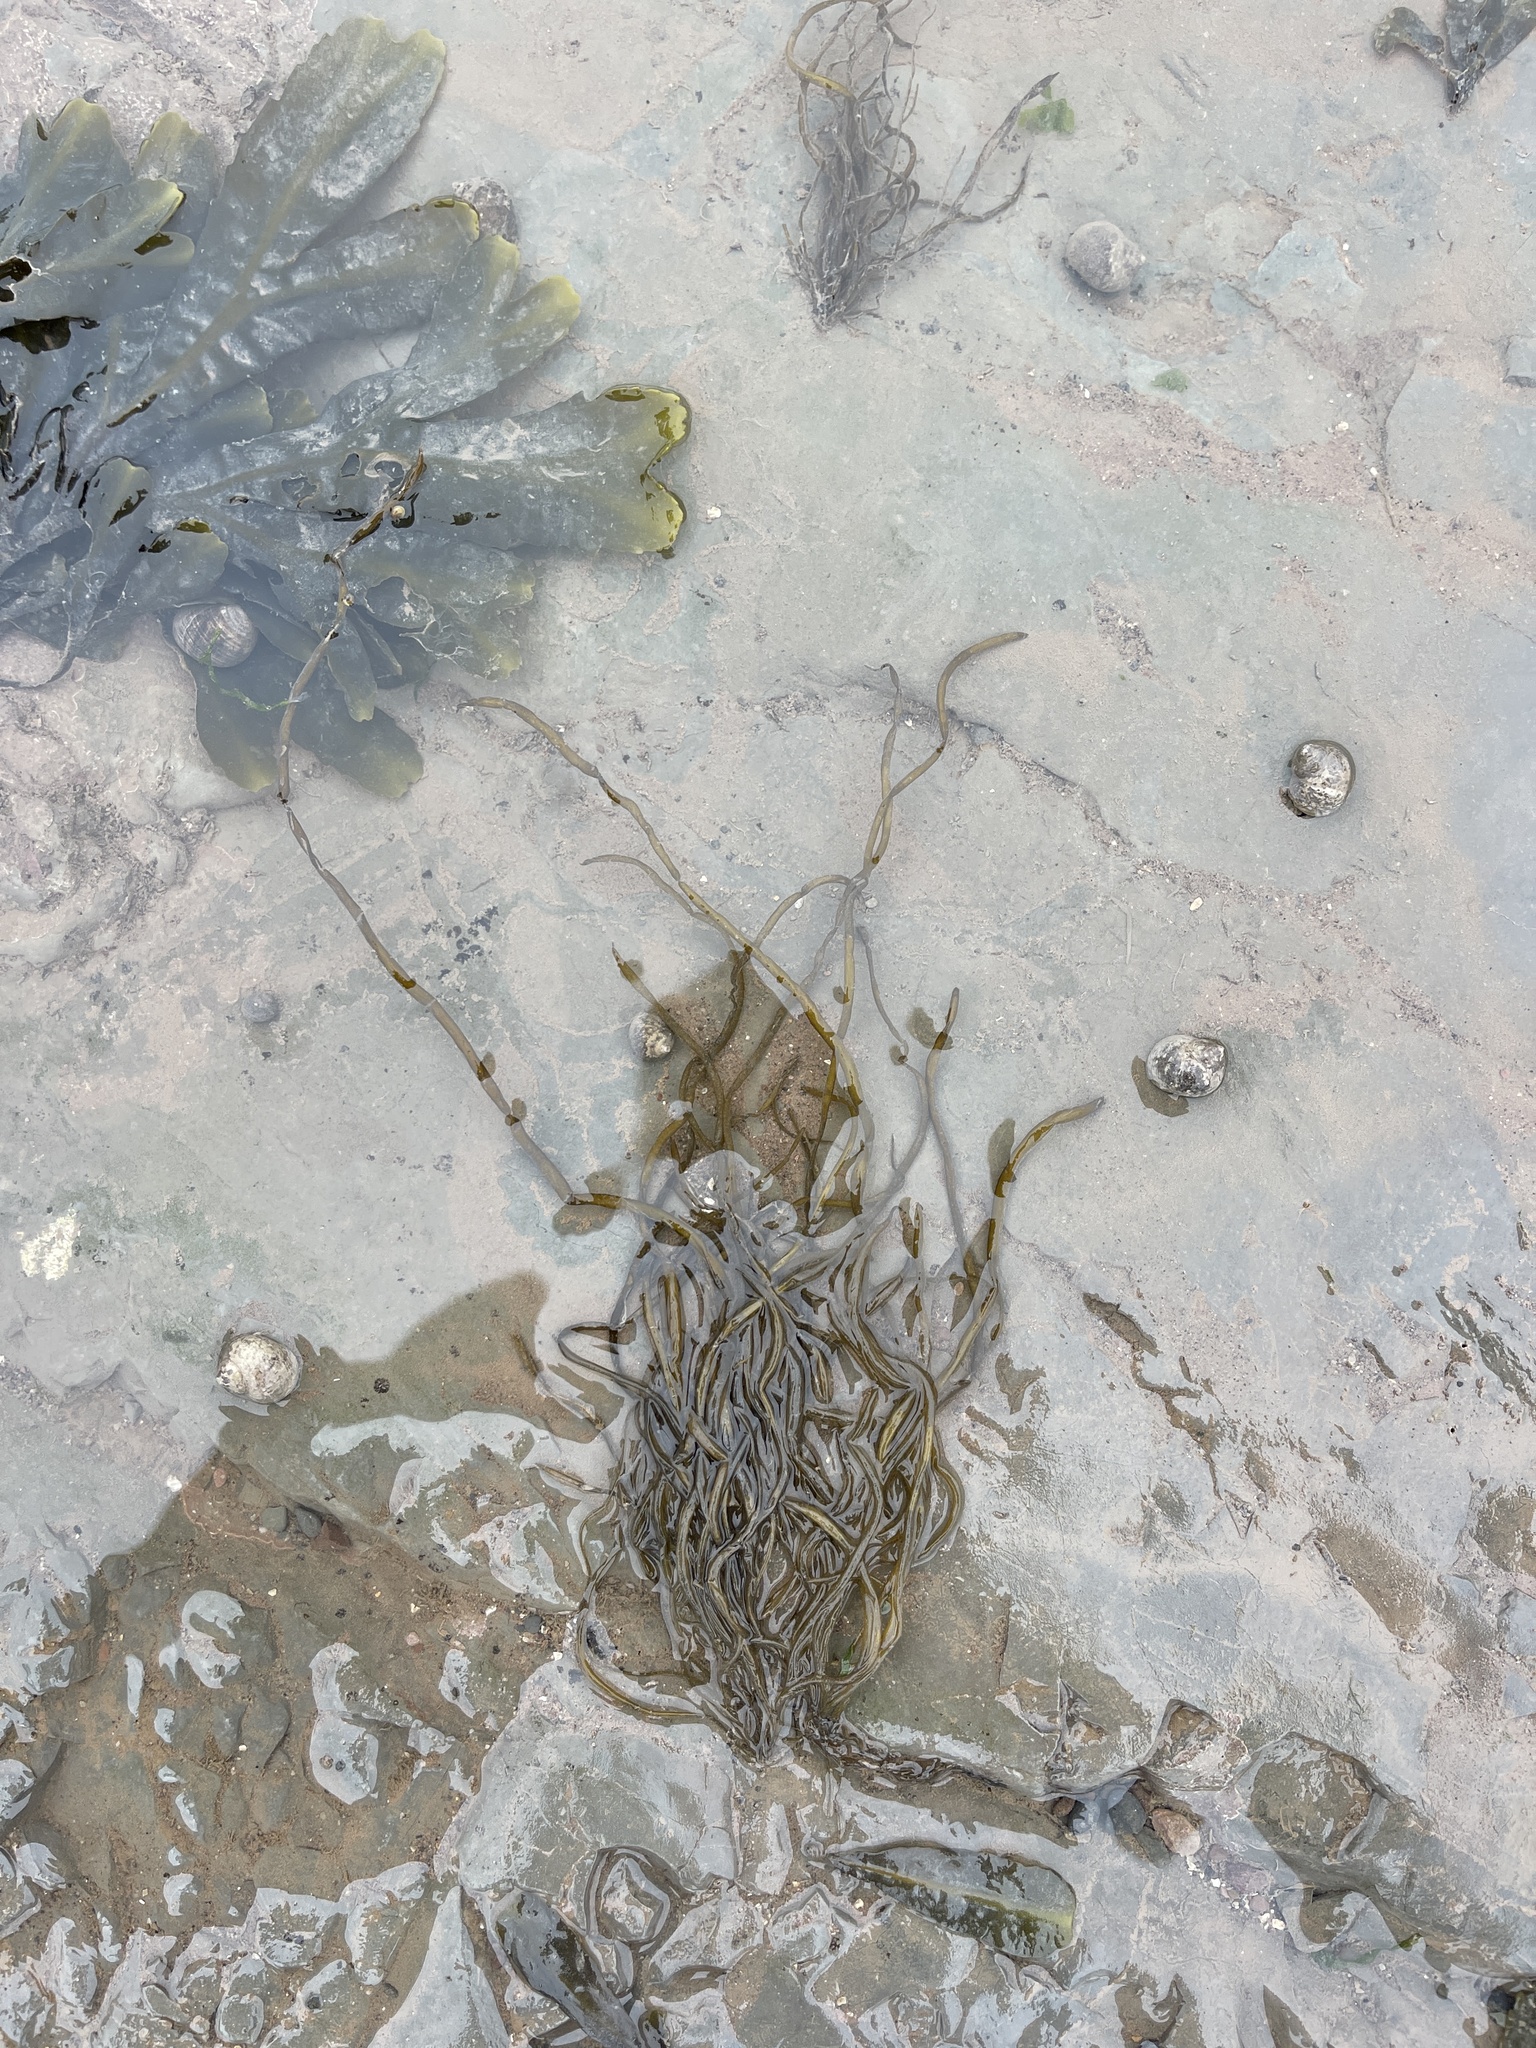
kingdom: Chromista
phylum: Ochrophyta
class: Phaeophyceae
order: Fucales
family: Himanthaliaceae
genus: Himanthalia
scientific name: Himanthalia elongata
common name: Sea-thong
